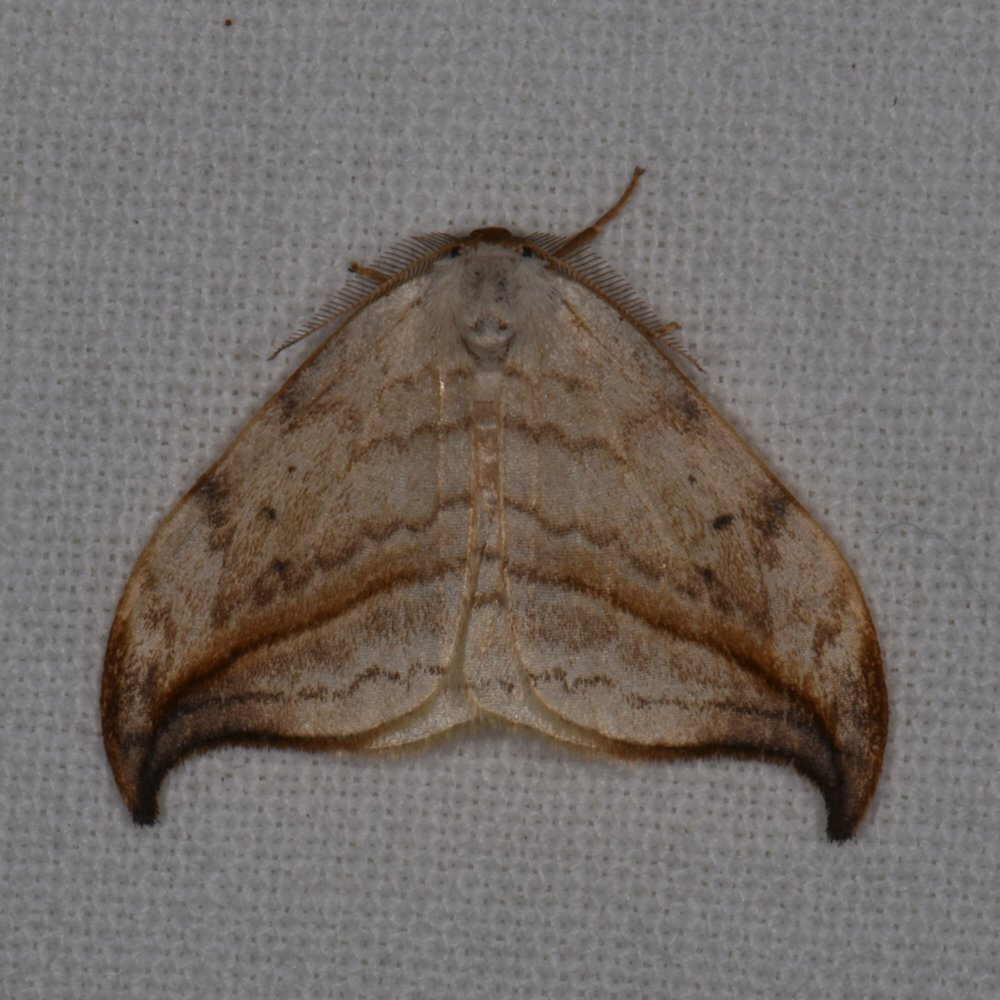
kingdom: Animalia
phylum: Arthropoda
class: Insecta
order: Lepidoptera
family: Drepanidae
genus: Drepana
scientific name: Drepana arcuata
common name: Arched hooktip moth
